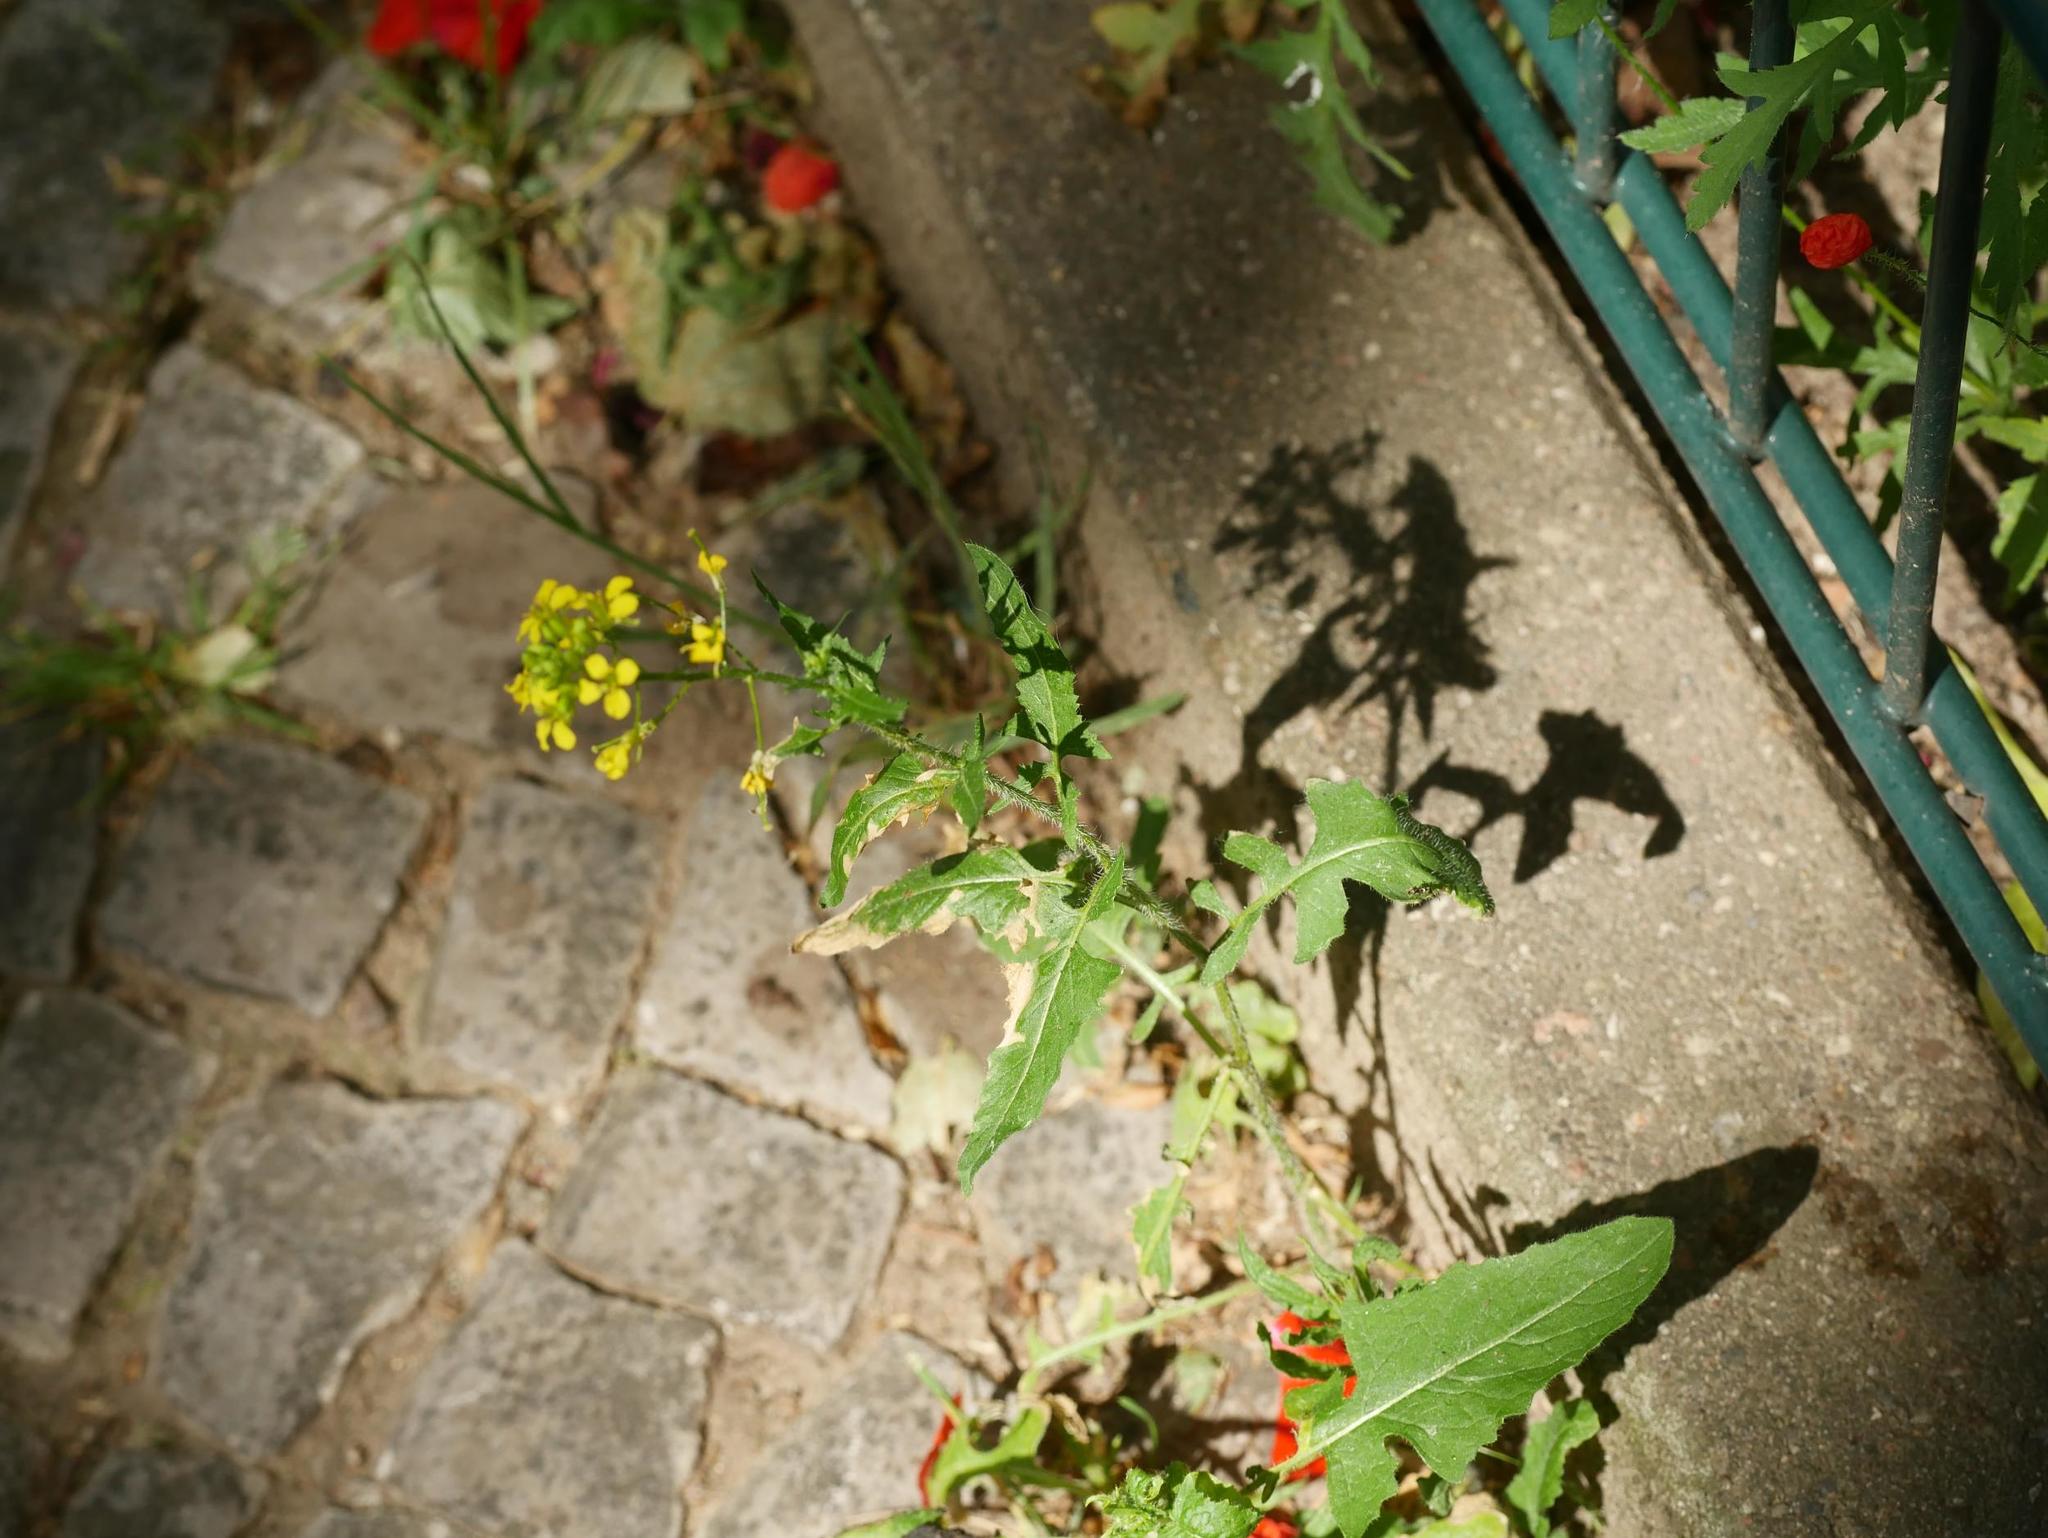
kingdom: Plantae
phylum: Tracheophyta
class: Magnoliopsida
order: Brassicales
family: Brassicaceae
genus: Sisymbrium
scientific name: Sisymbrium loeselii
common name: False london-rocket
